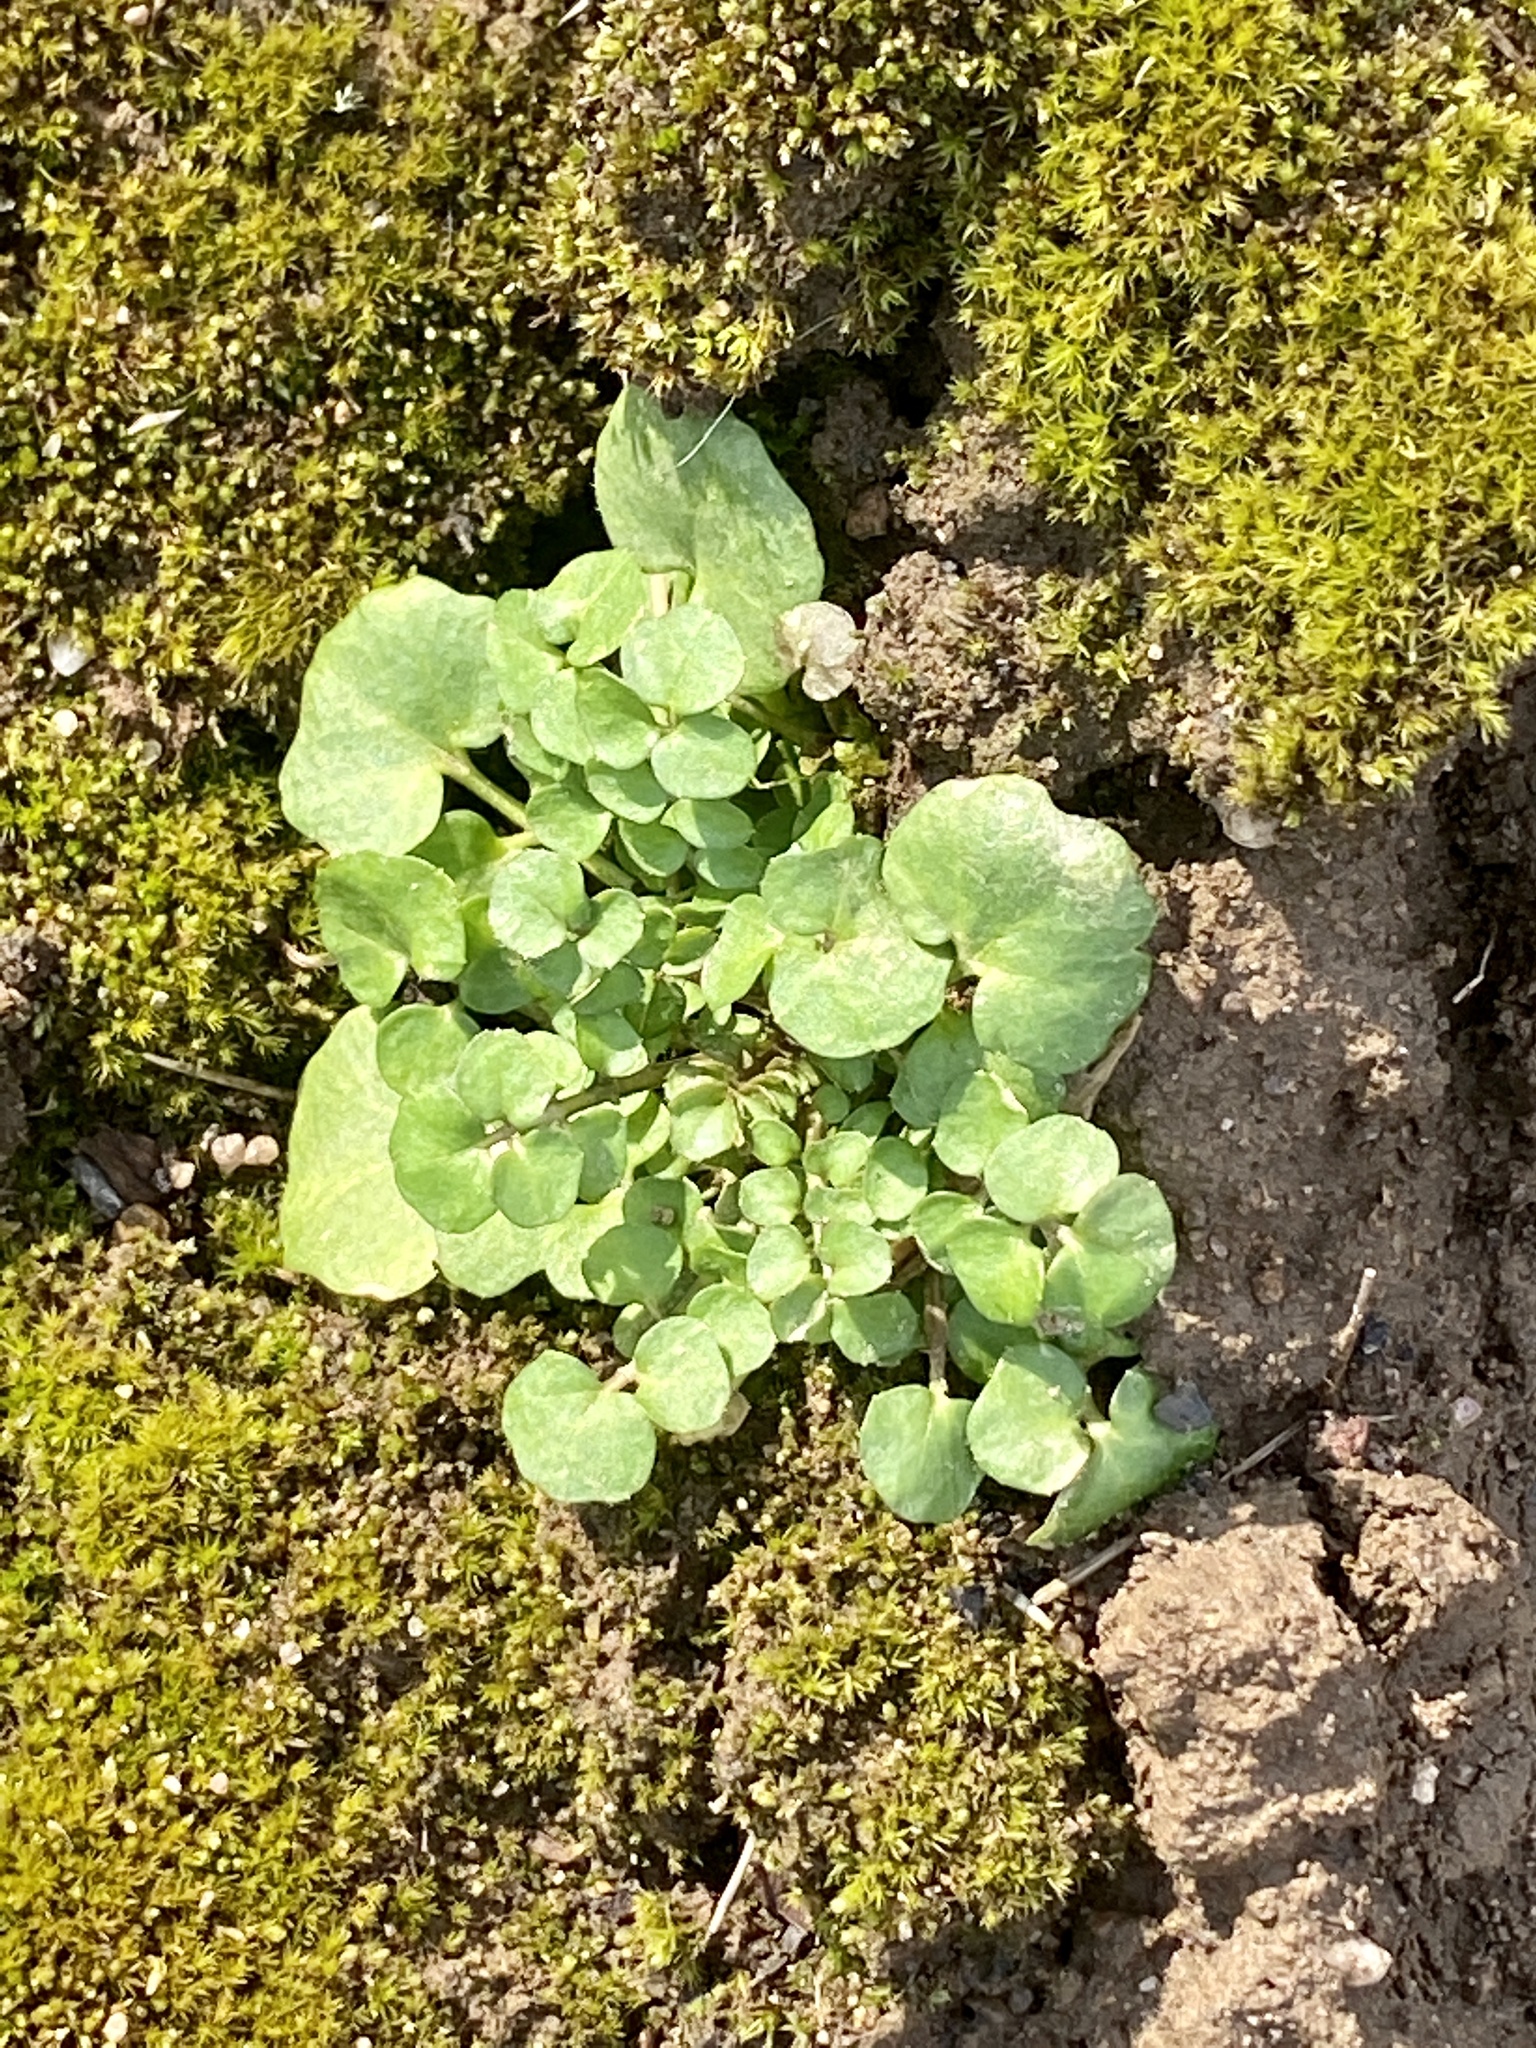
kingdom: Plantae
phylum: Tracheophyta
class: Magnoliopsida
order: Brassicales
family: Brassicaceae
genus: Cardamine
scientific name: Cardamine hirsuta
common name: Hairy bittercress
